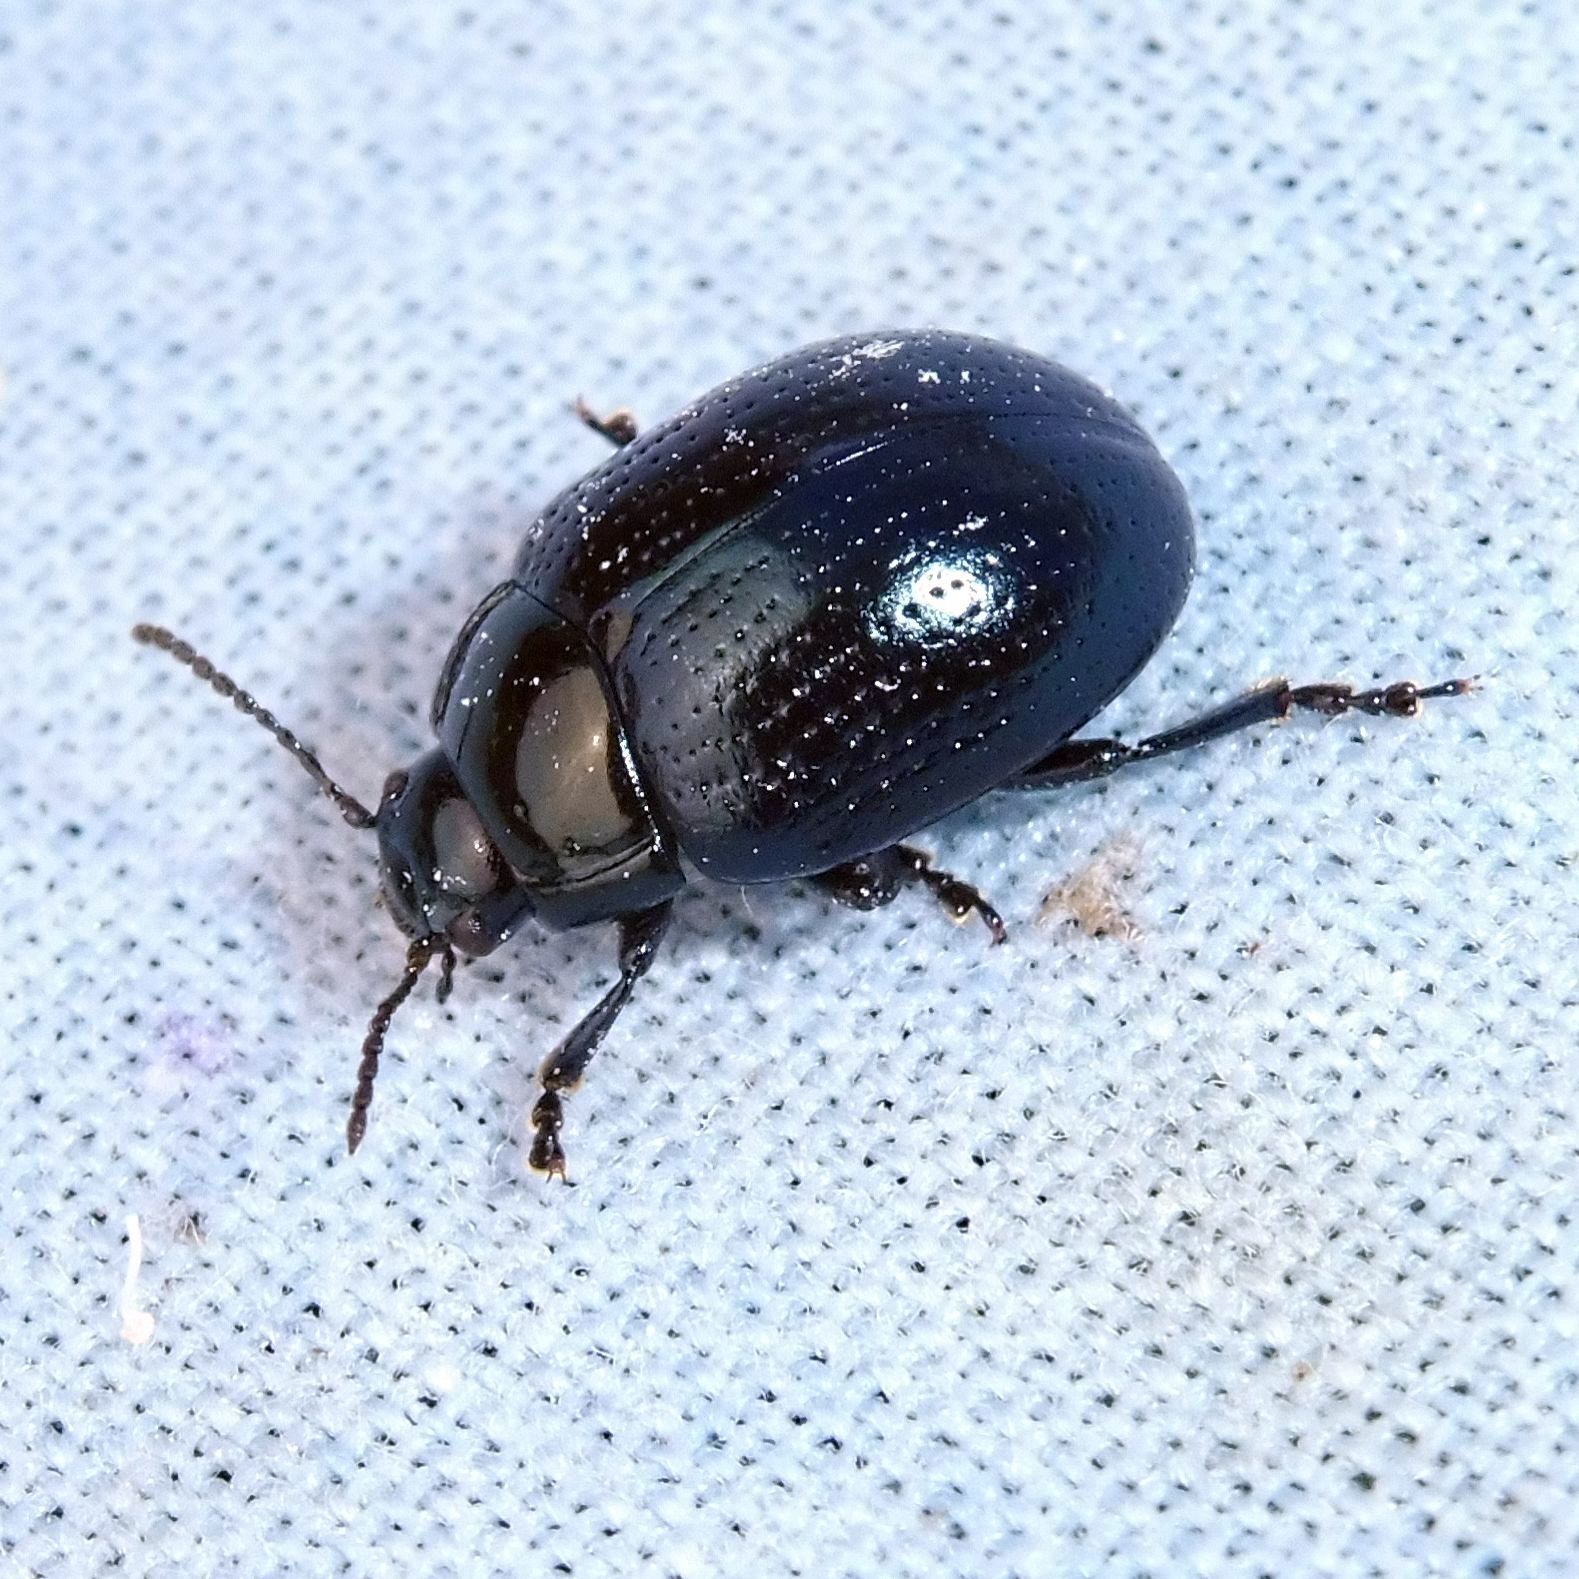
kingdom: Animalia
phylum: Arthropoda
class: Insecta
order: Coleoptera
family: Chrysomelidae
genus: Chrysolina
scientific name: Chrysolina oricalcia
